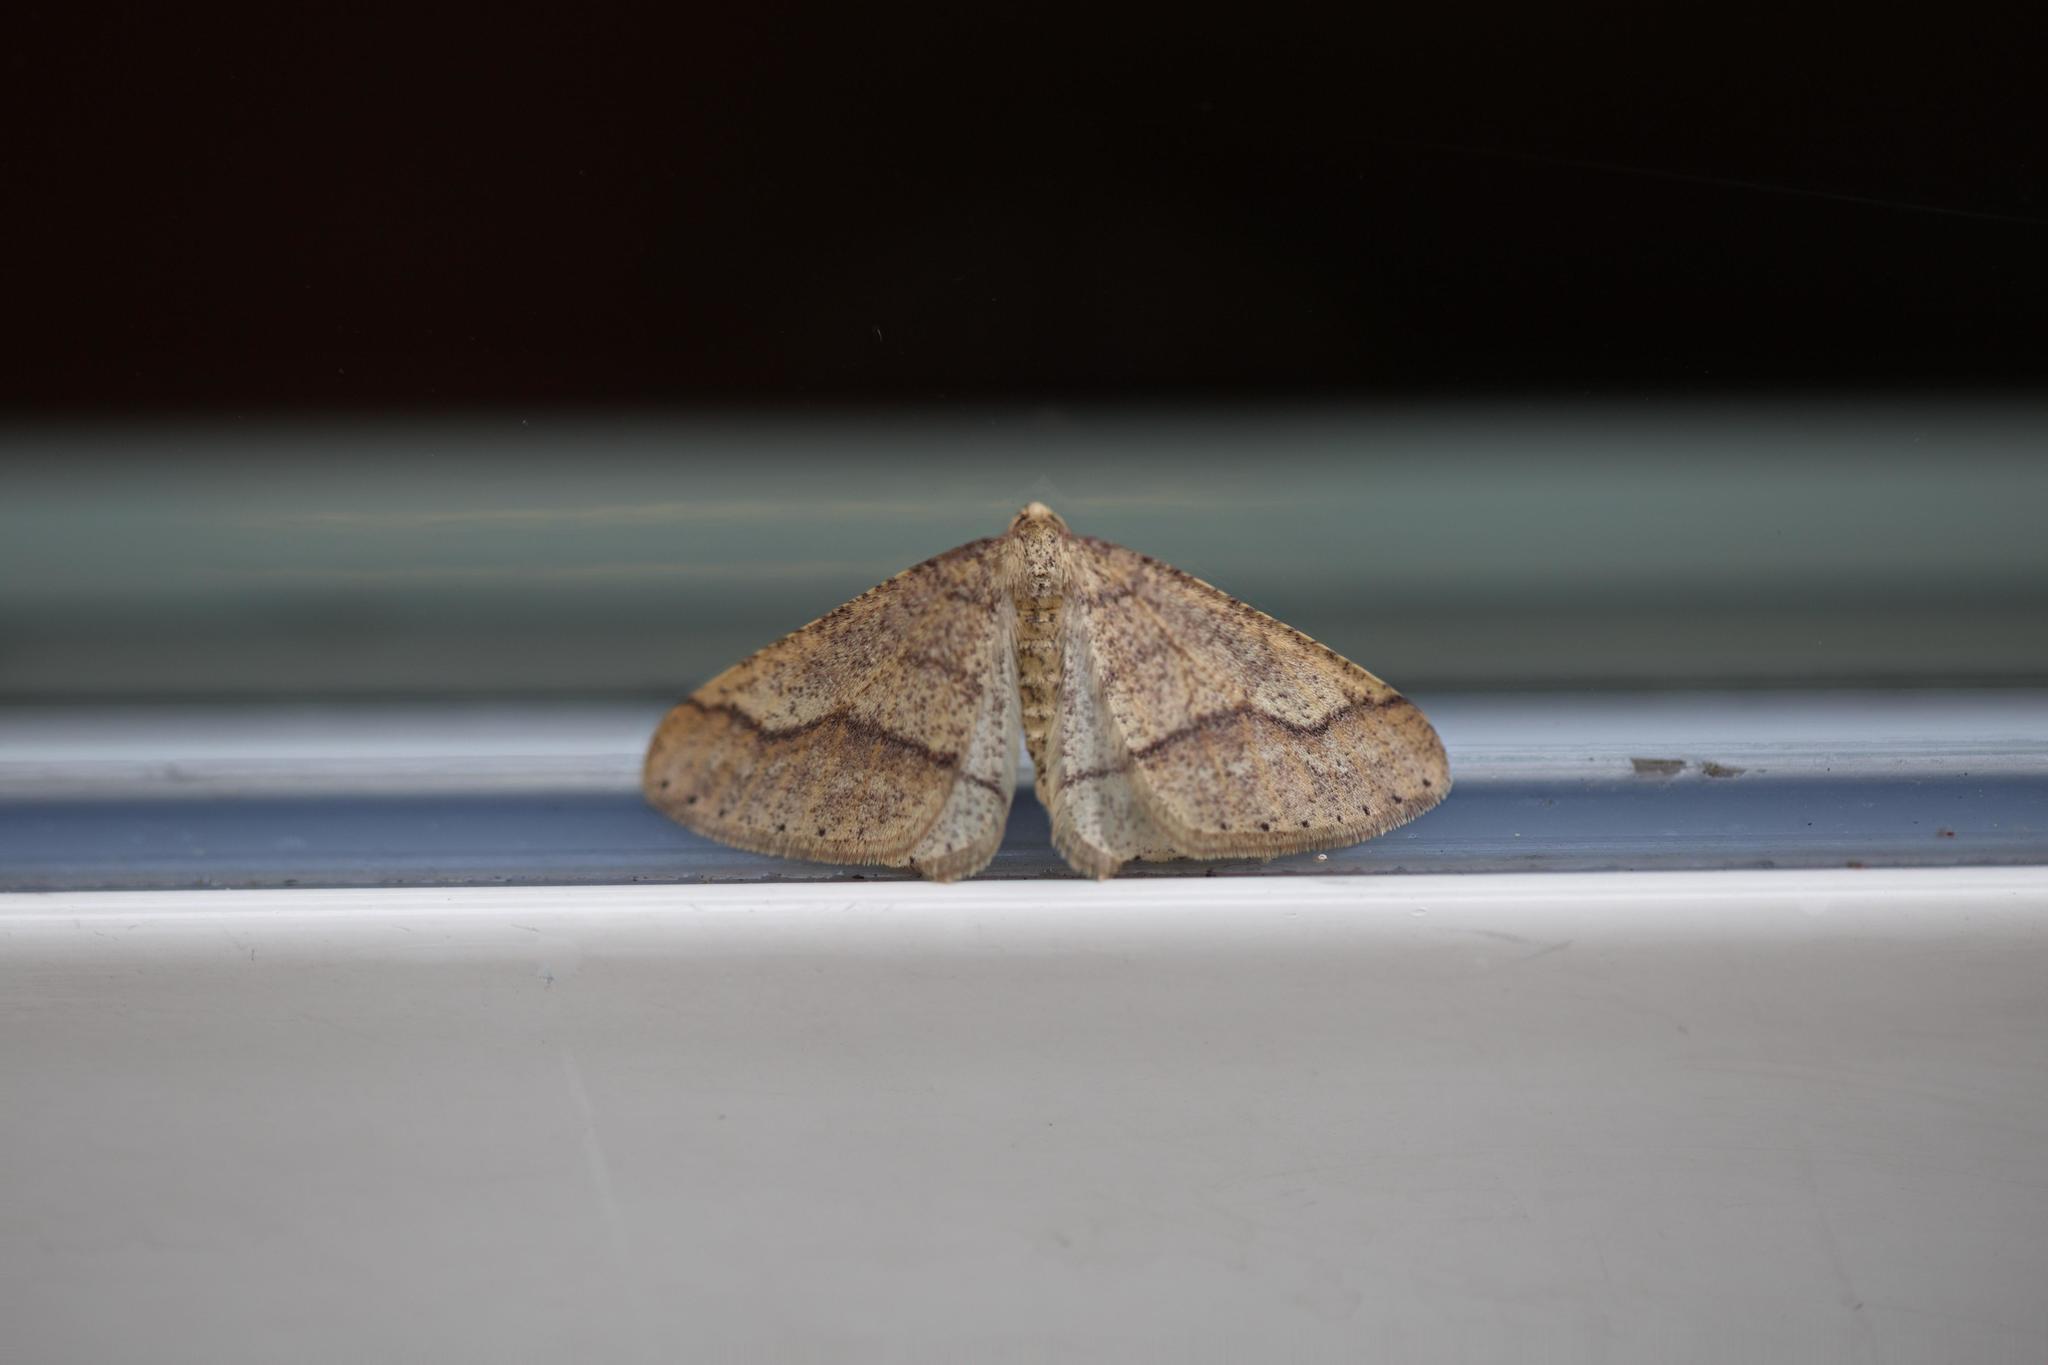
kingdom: Animalia
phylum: Arthropoda
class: Insecta
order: Lepidoptera
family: Geometridae
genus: Agriopis
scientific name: Agriopis marginaria
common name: Dotted border
